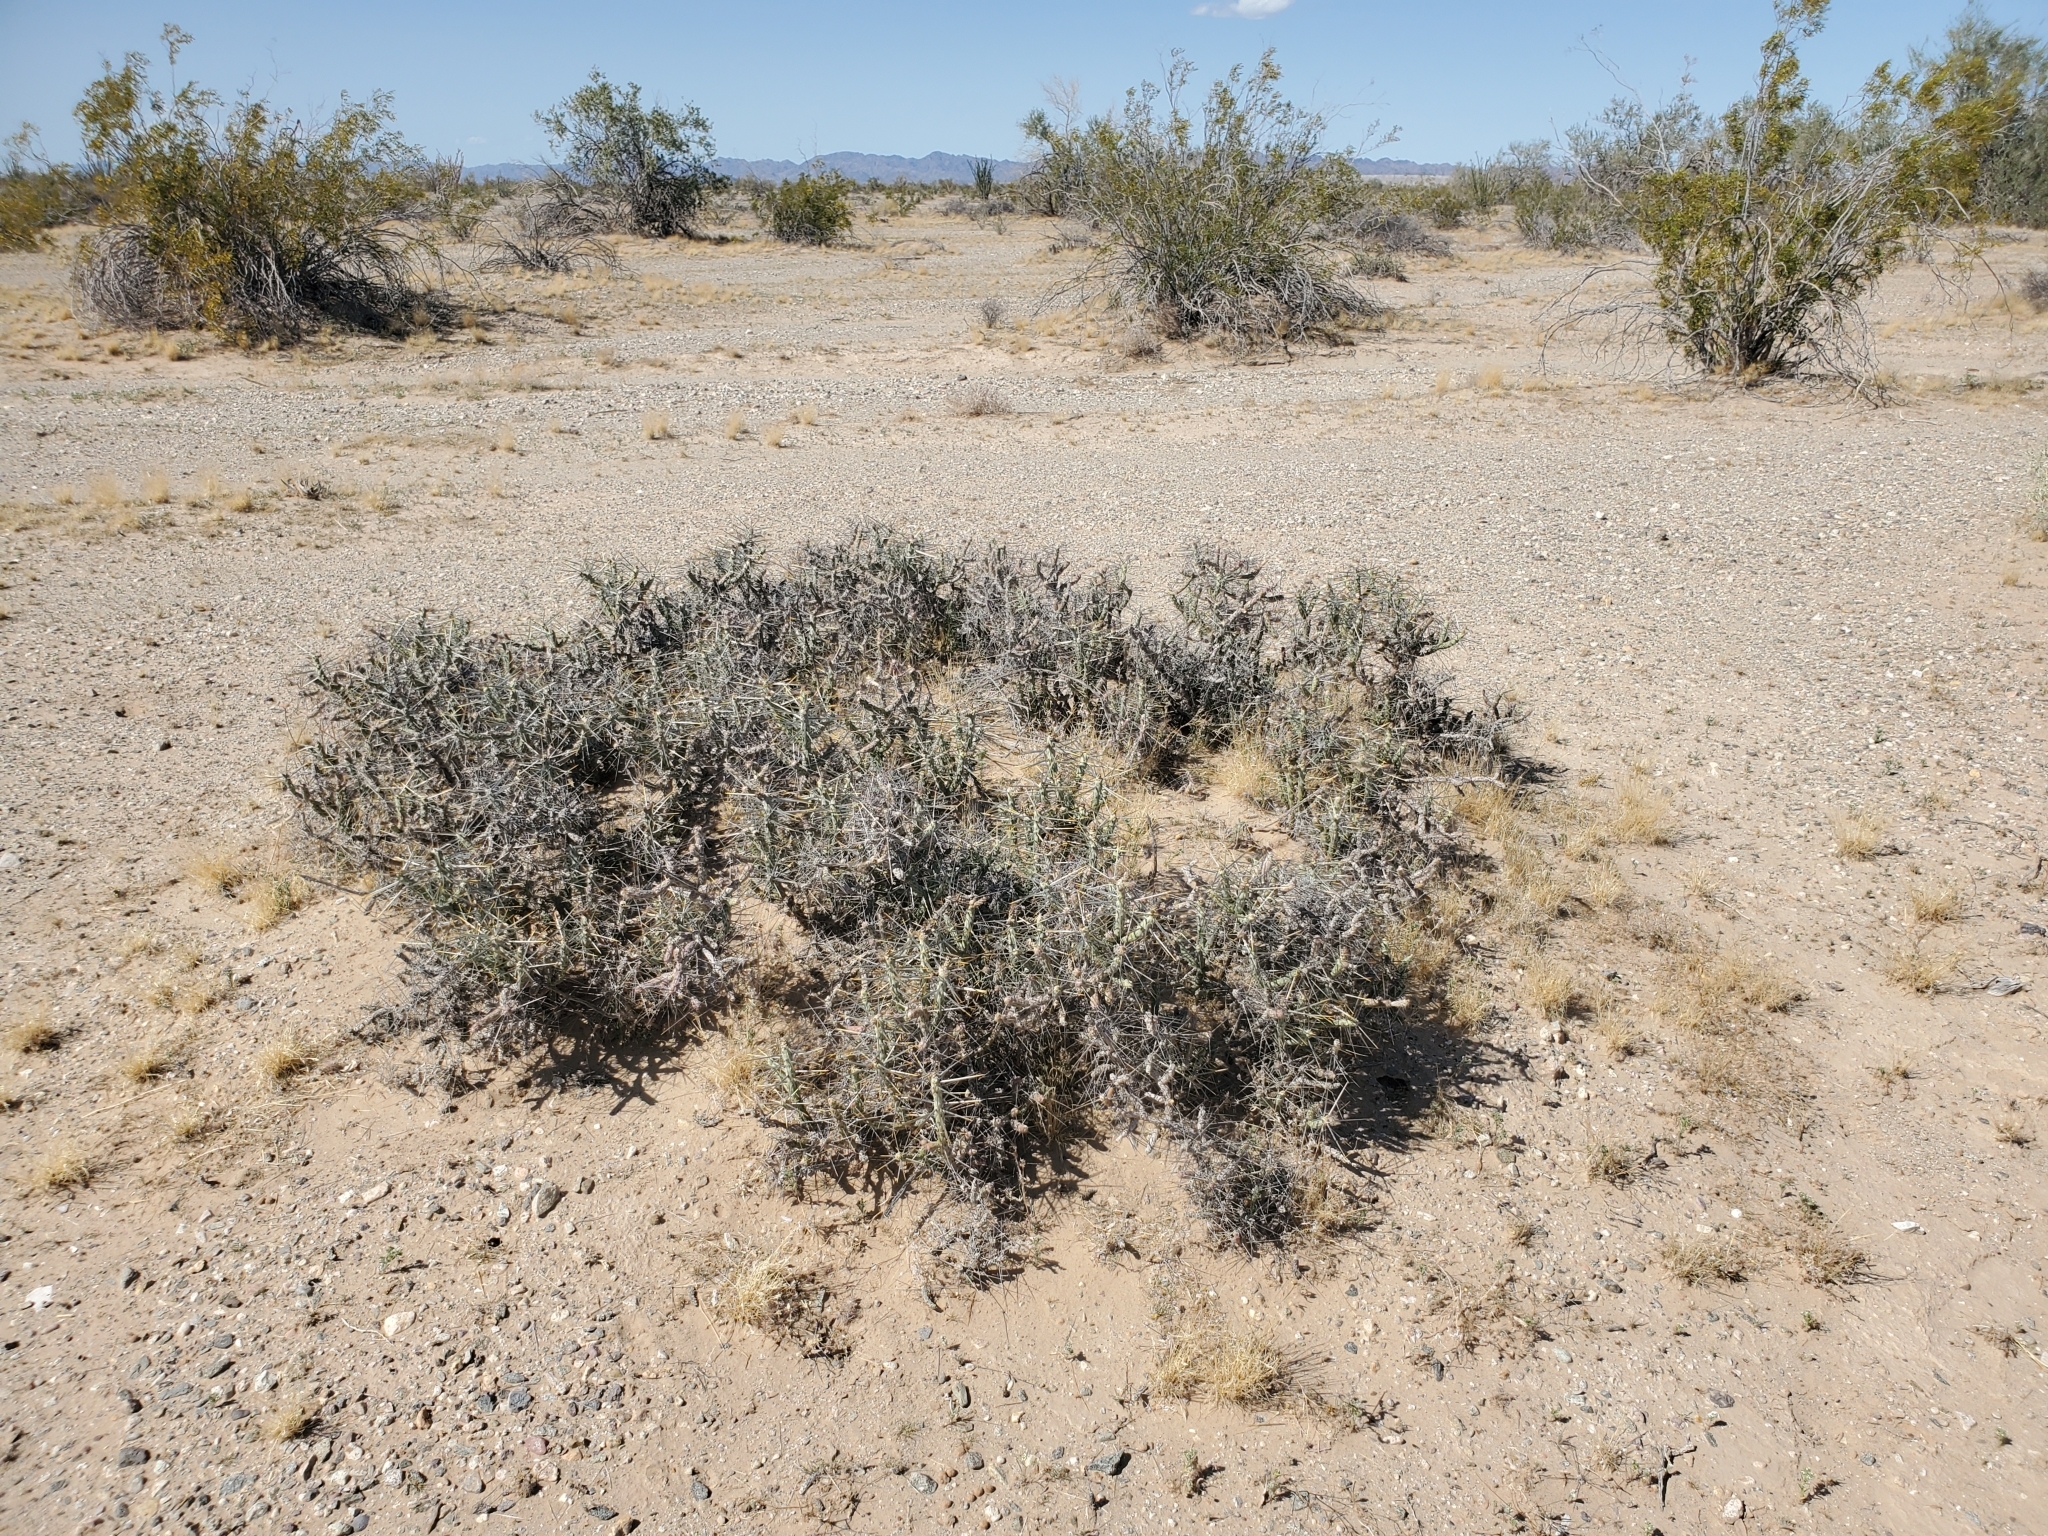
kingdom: Plantae
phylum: Tracheophyta
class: Magnoliopsida
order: Caryophyllales
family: Cactaceae
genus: Cylindropuntia
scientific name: Cylindropuntia ramosissima
